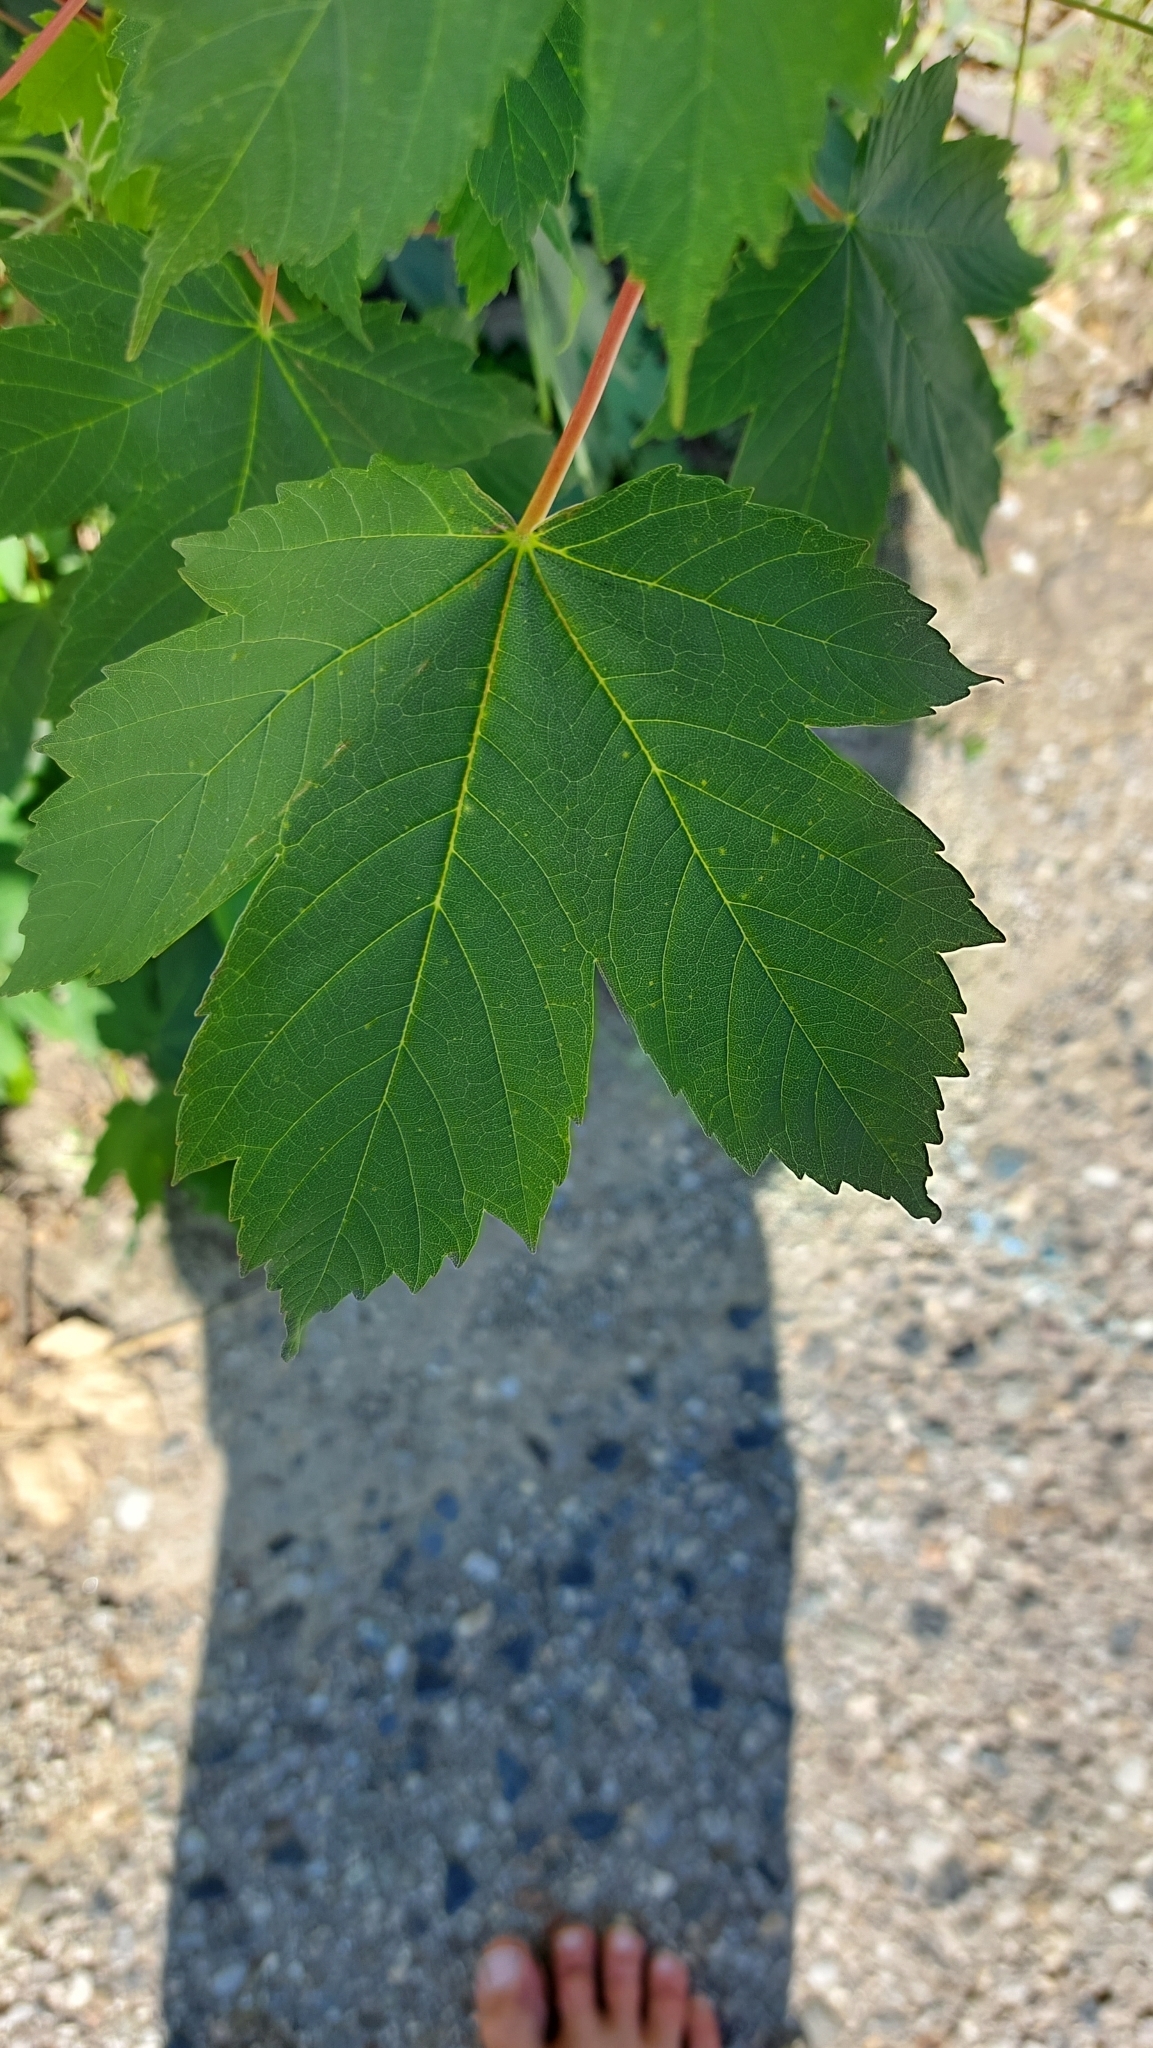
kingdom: Plantae
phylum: Tracheophyta
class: Magnoliopsida
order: Sapindales
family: Sapindaceae
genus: Acer
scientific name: Acer pseudoplatanus
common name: Sycamore
